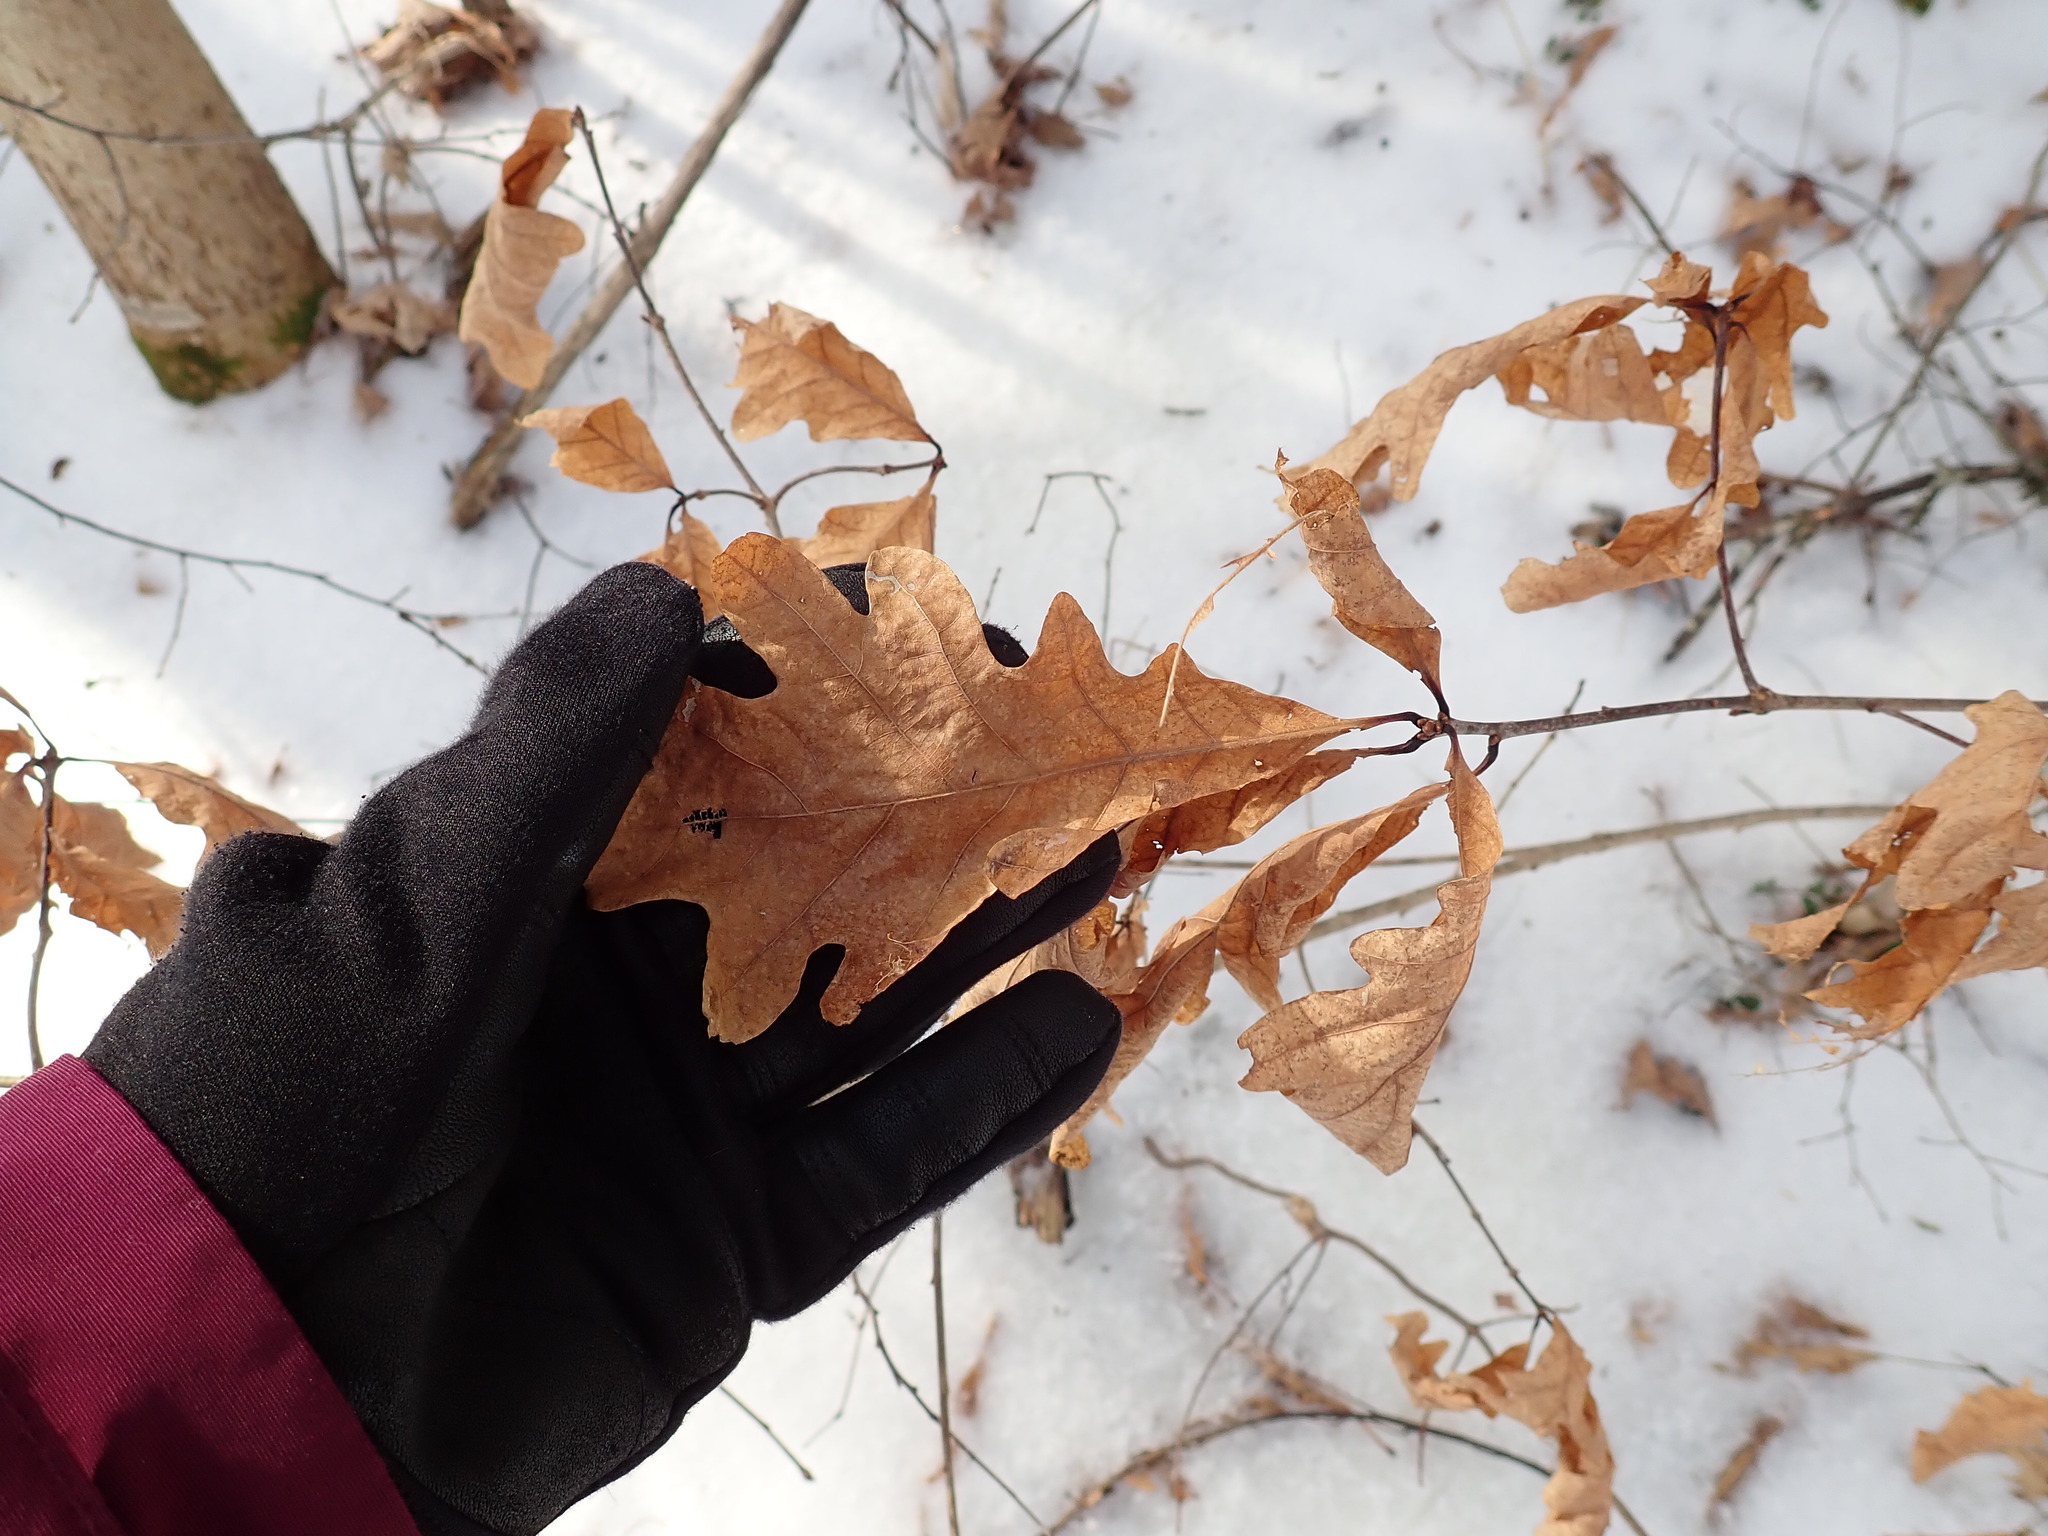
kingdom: Plantae
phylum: Tracheophyta
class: Magnoliopsida
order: Fagales
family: Fagaceae
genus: Quercus
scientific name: Quercus alba
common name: White oak
